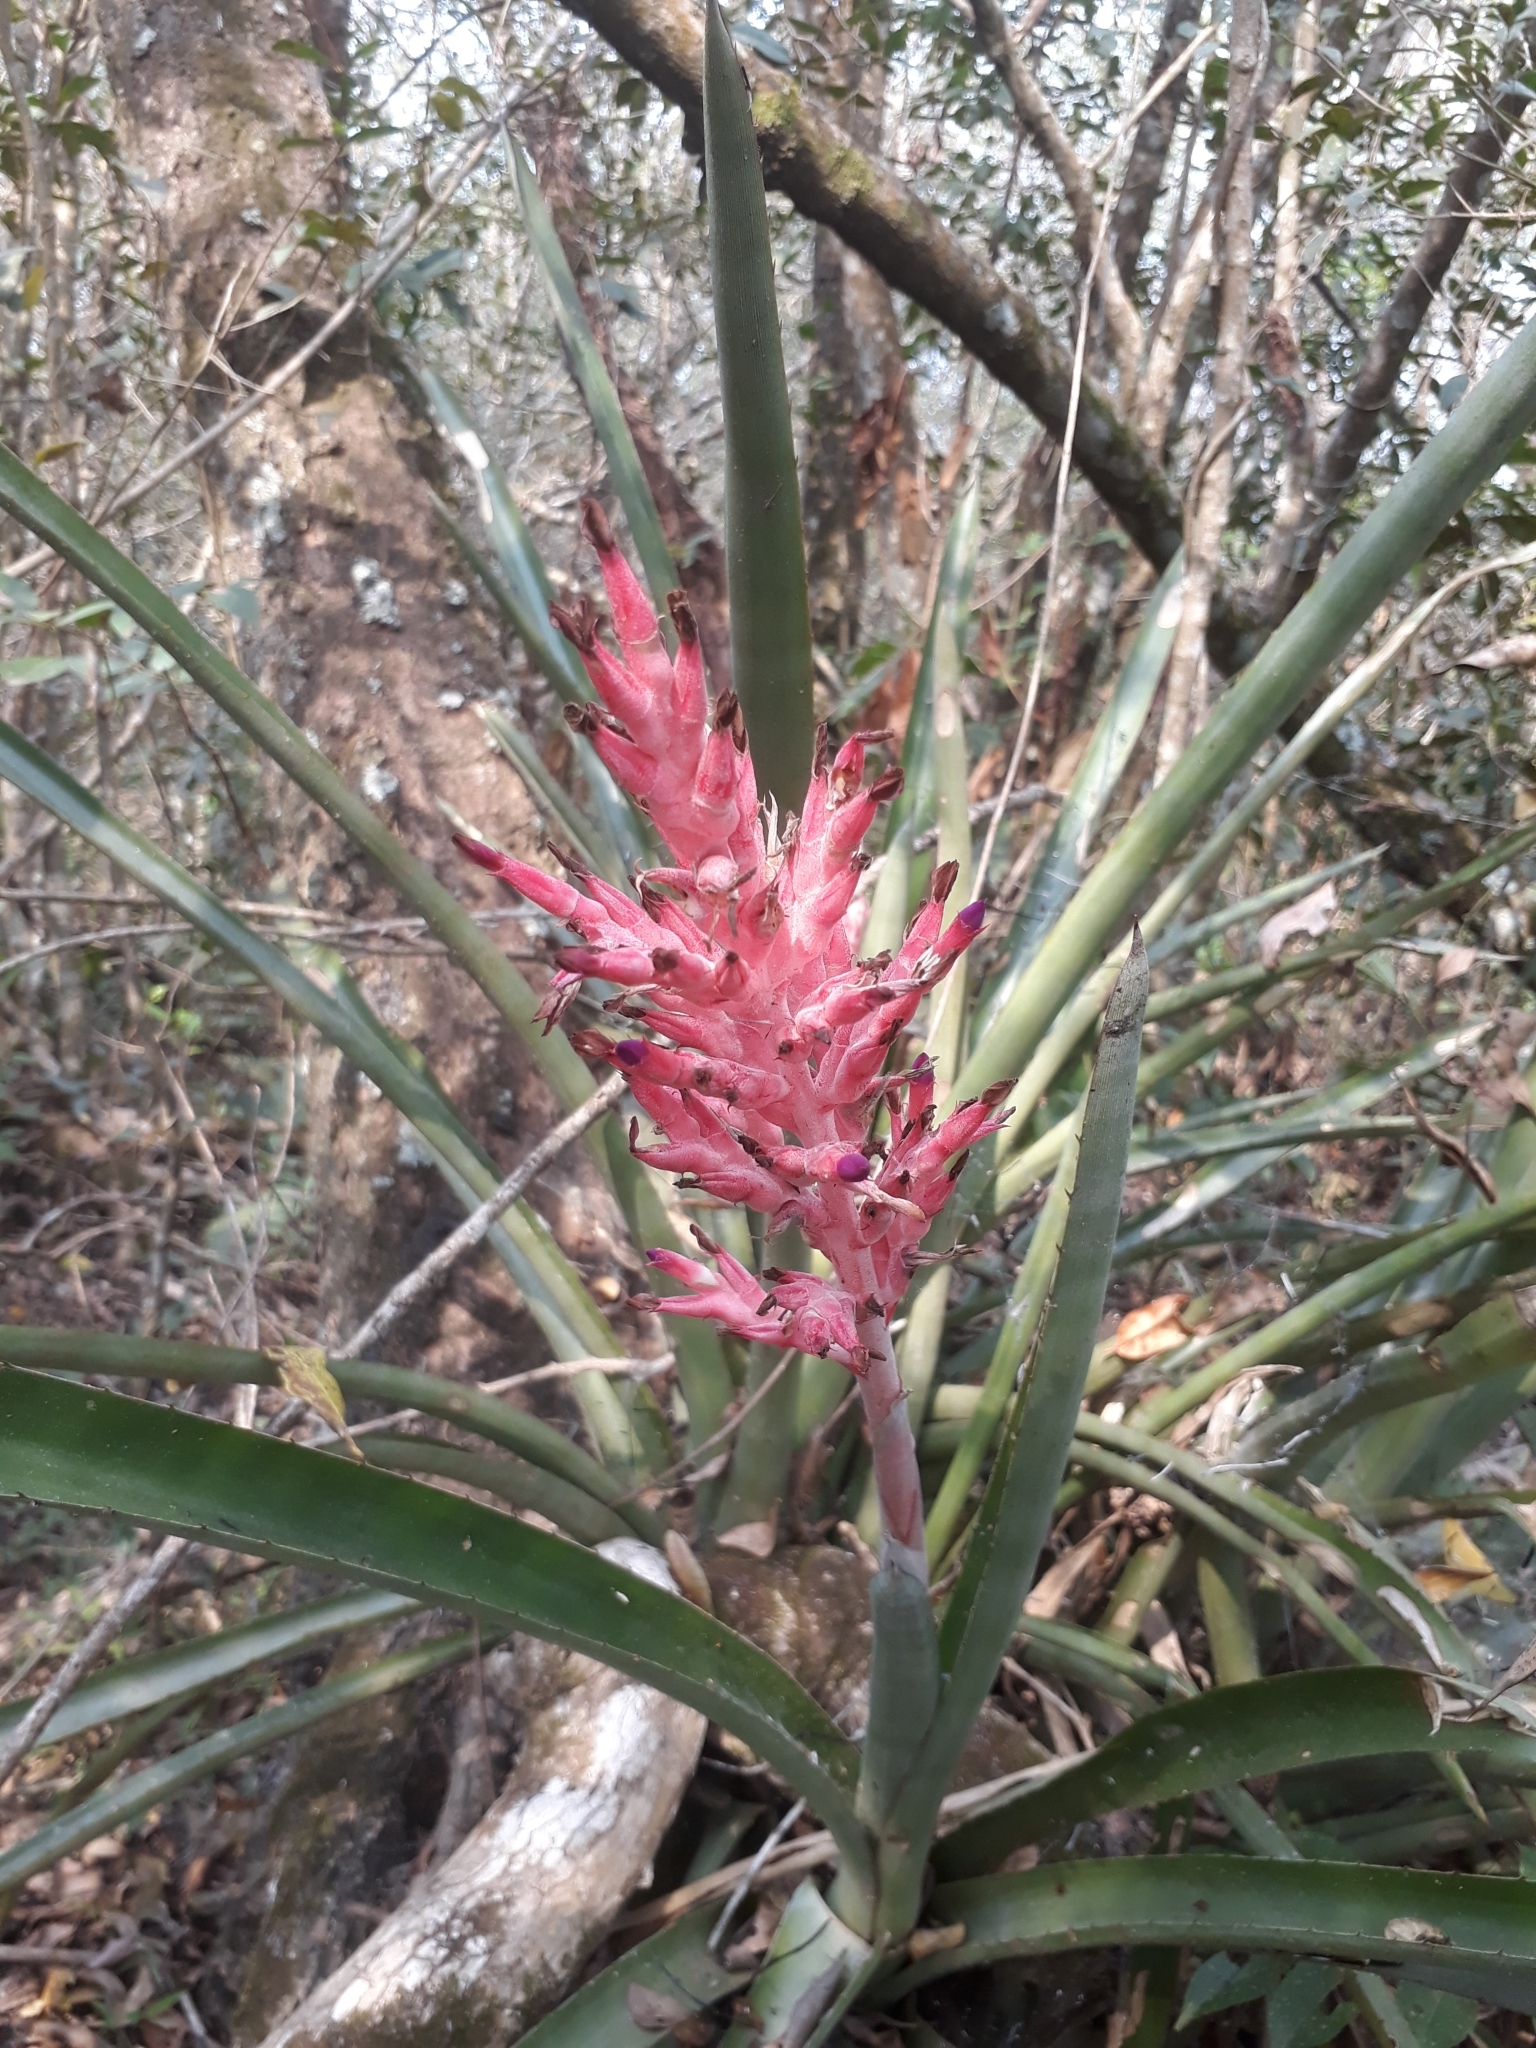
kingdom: Plantae
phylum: Tracheophyta
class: Liliopsida
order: Poales
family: Bromeliaceae
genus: Aechmea
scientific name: Aechmea distichantha
